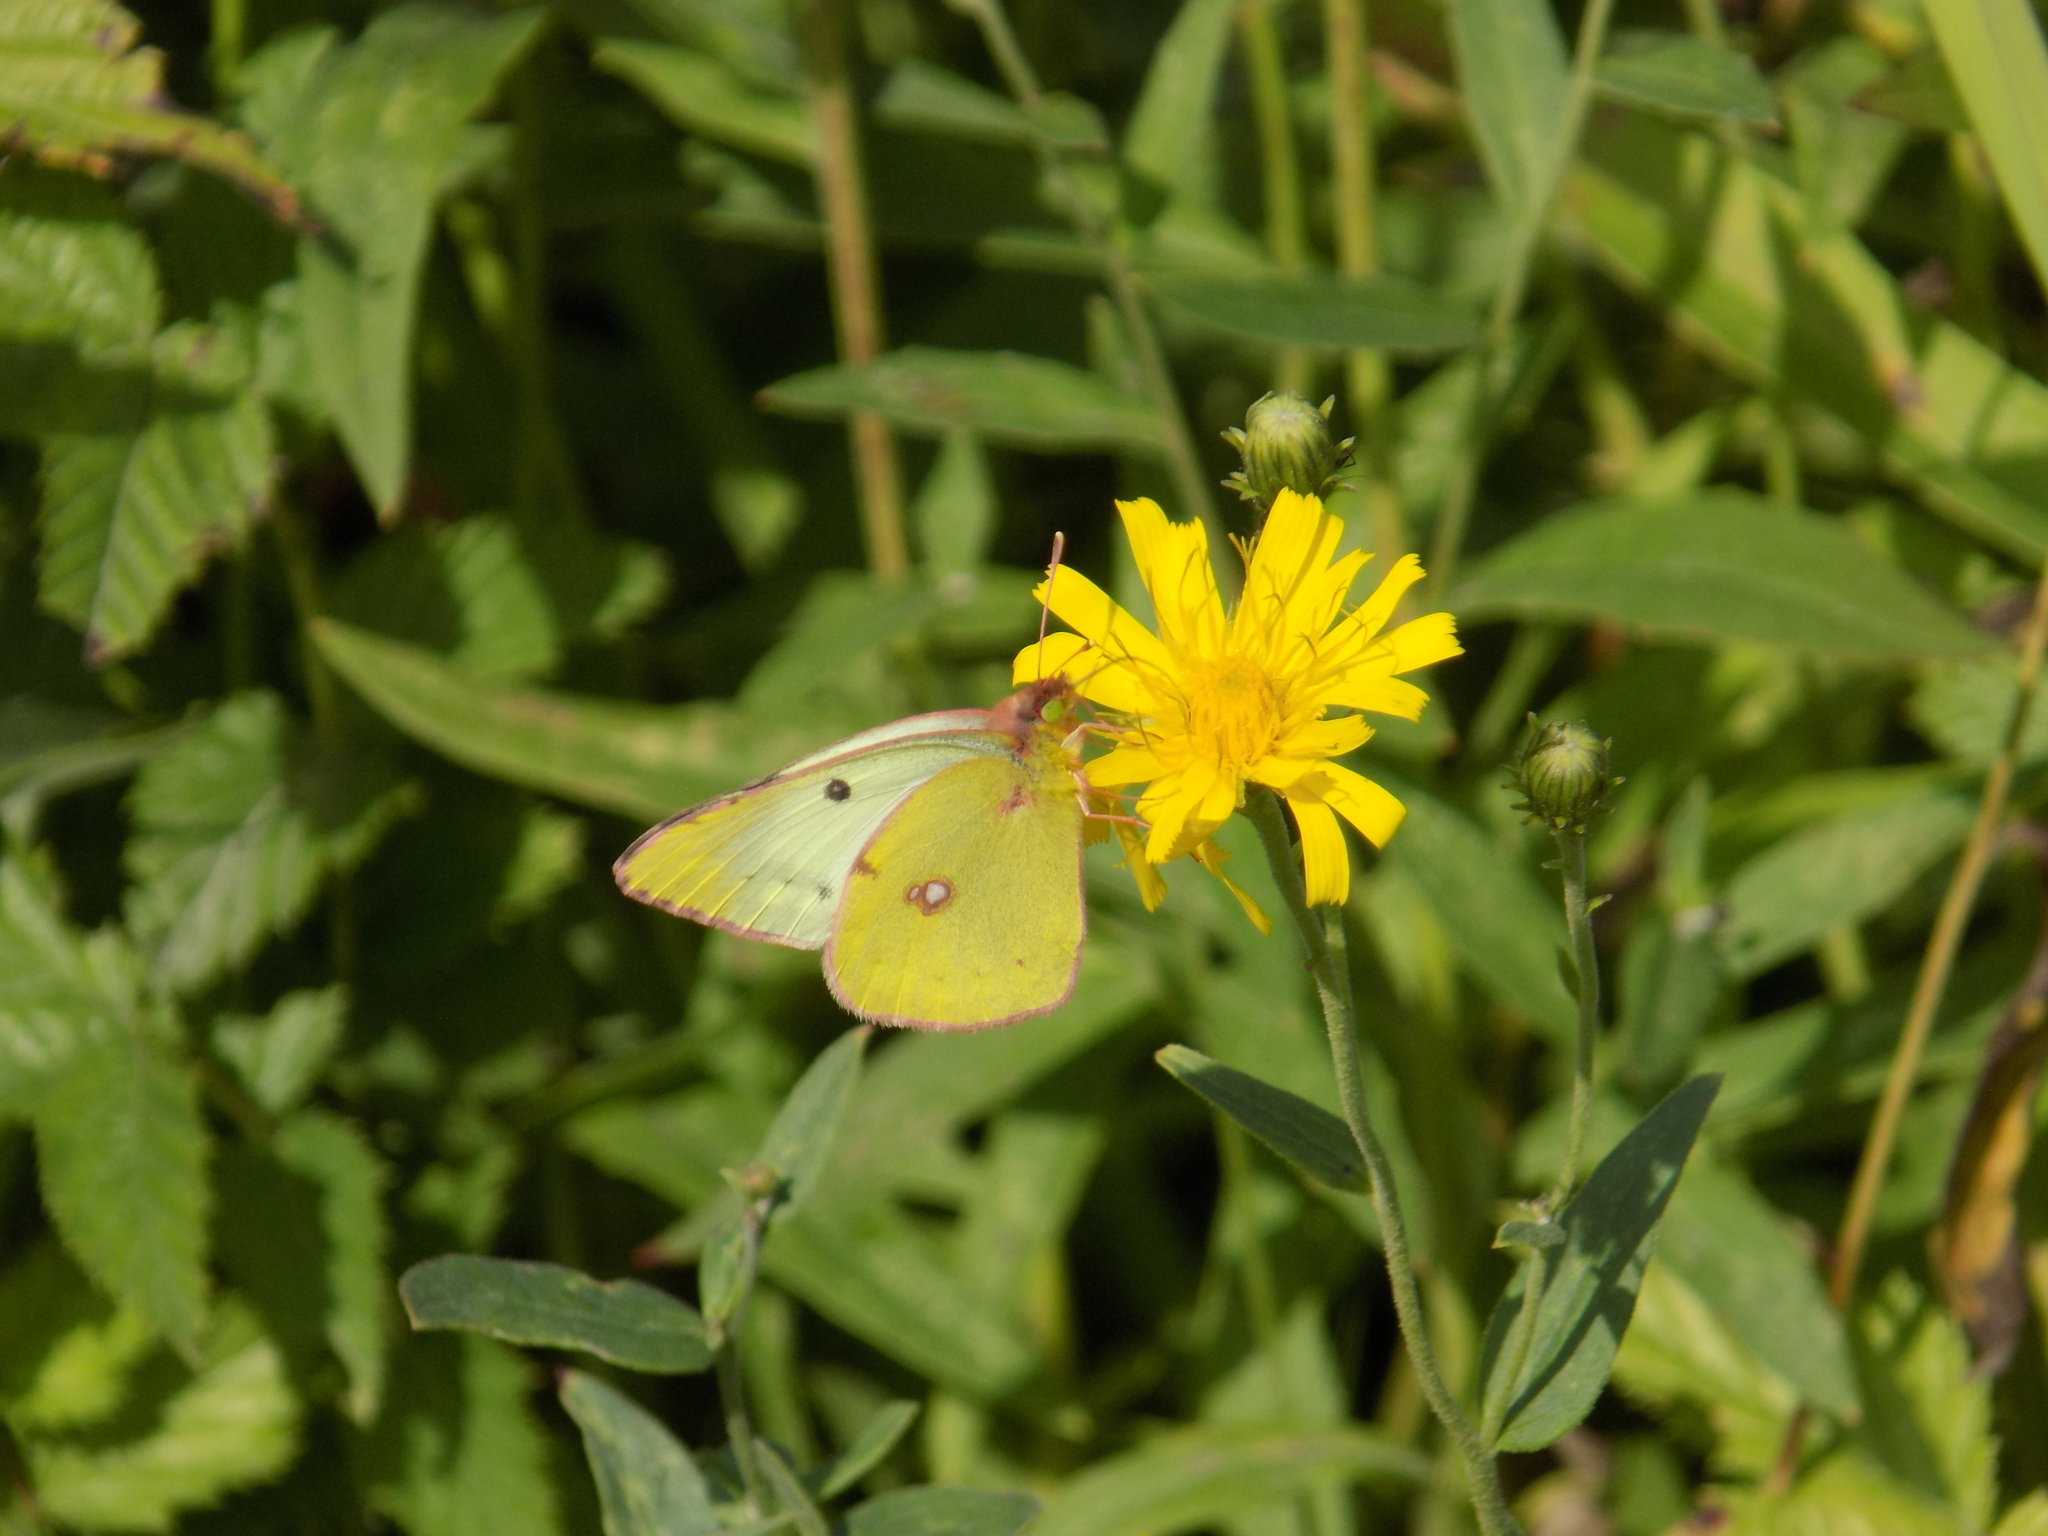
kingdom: Animalia
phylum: Arthropoda
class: Insecta
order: Lepidoptera
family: Pieridae
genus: Colias
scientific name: Colias hyale
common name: Pale clouded yellow
